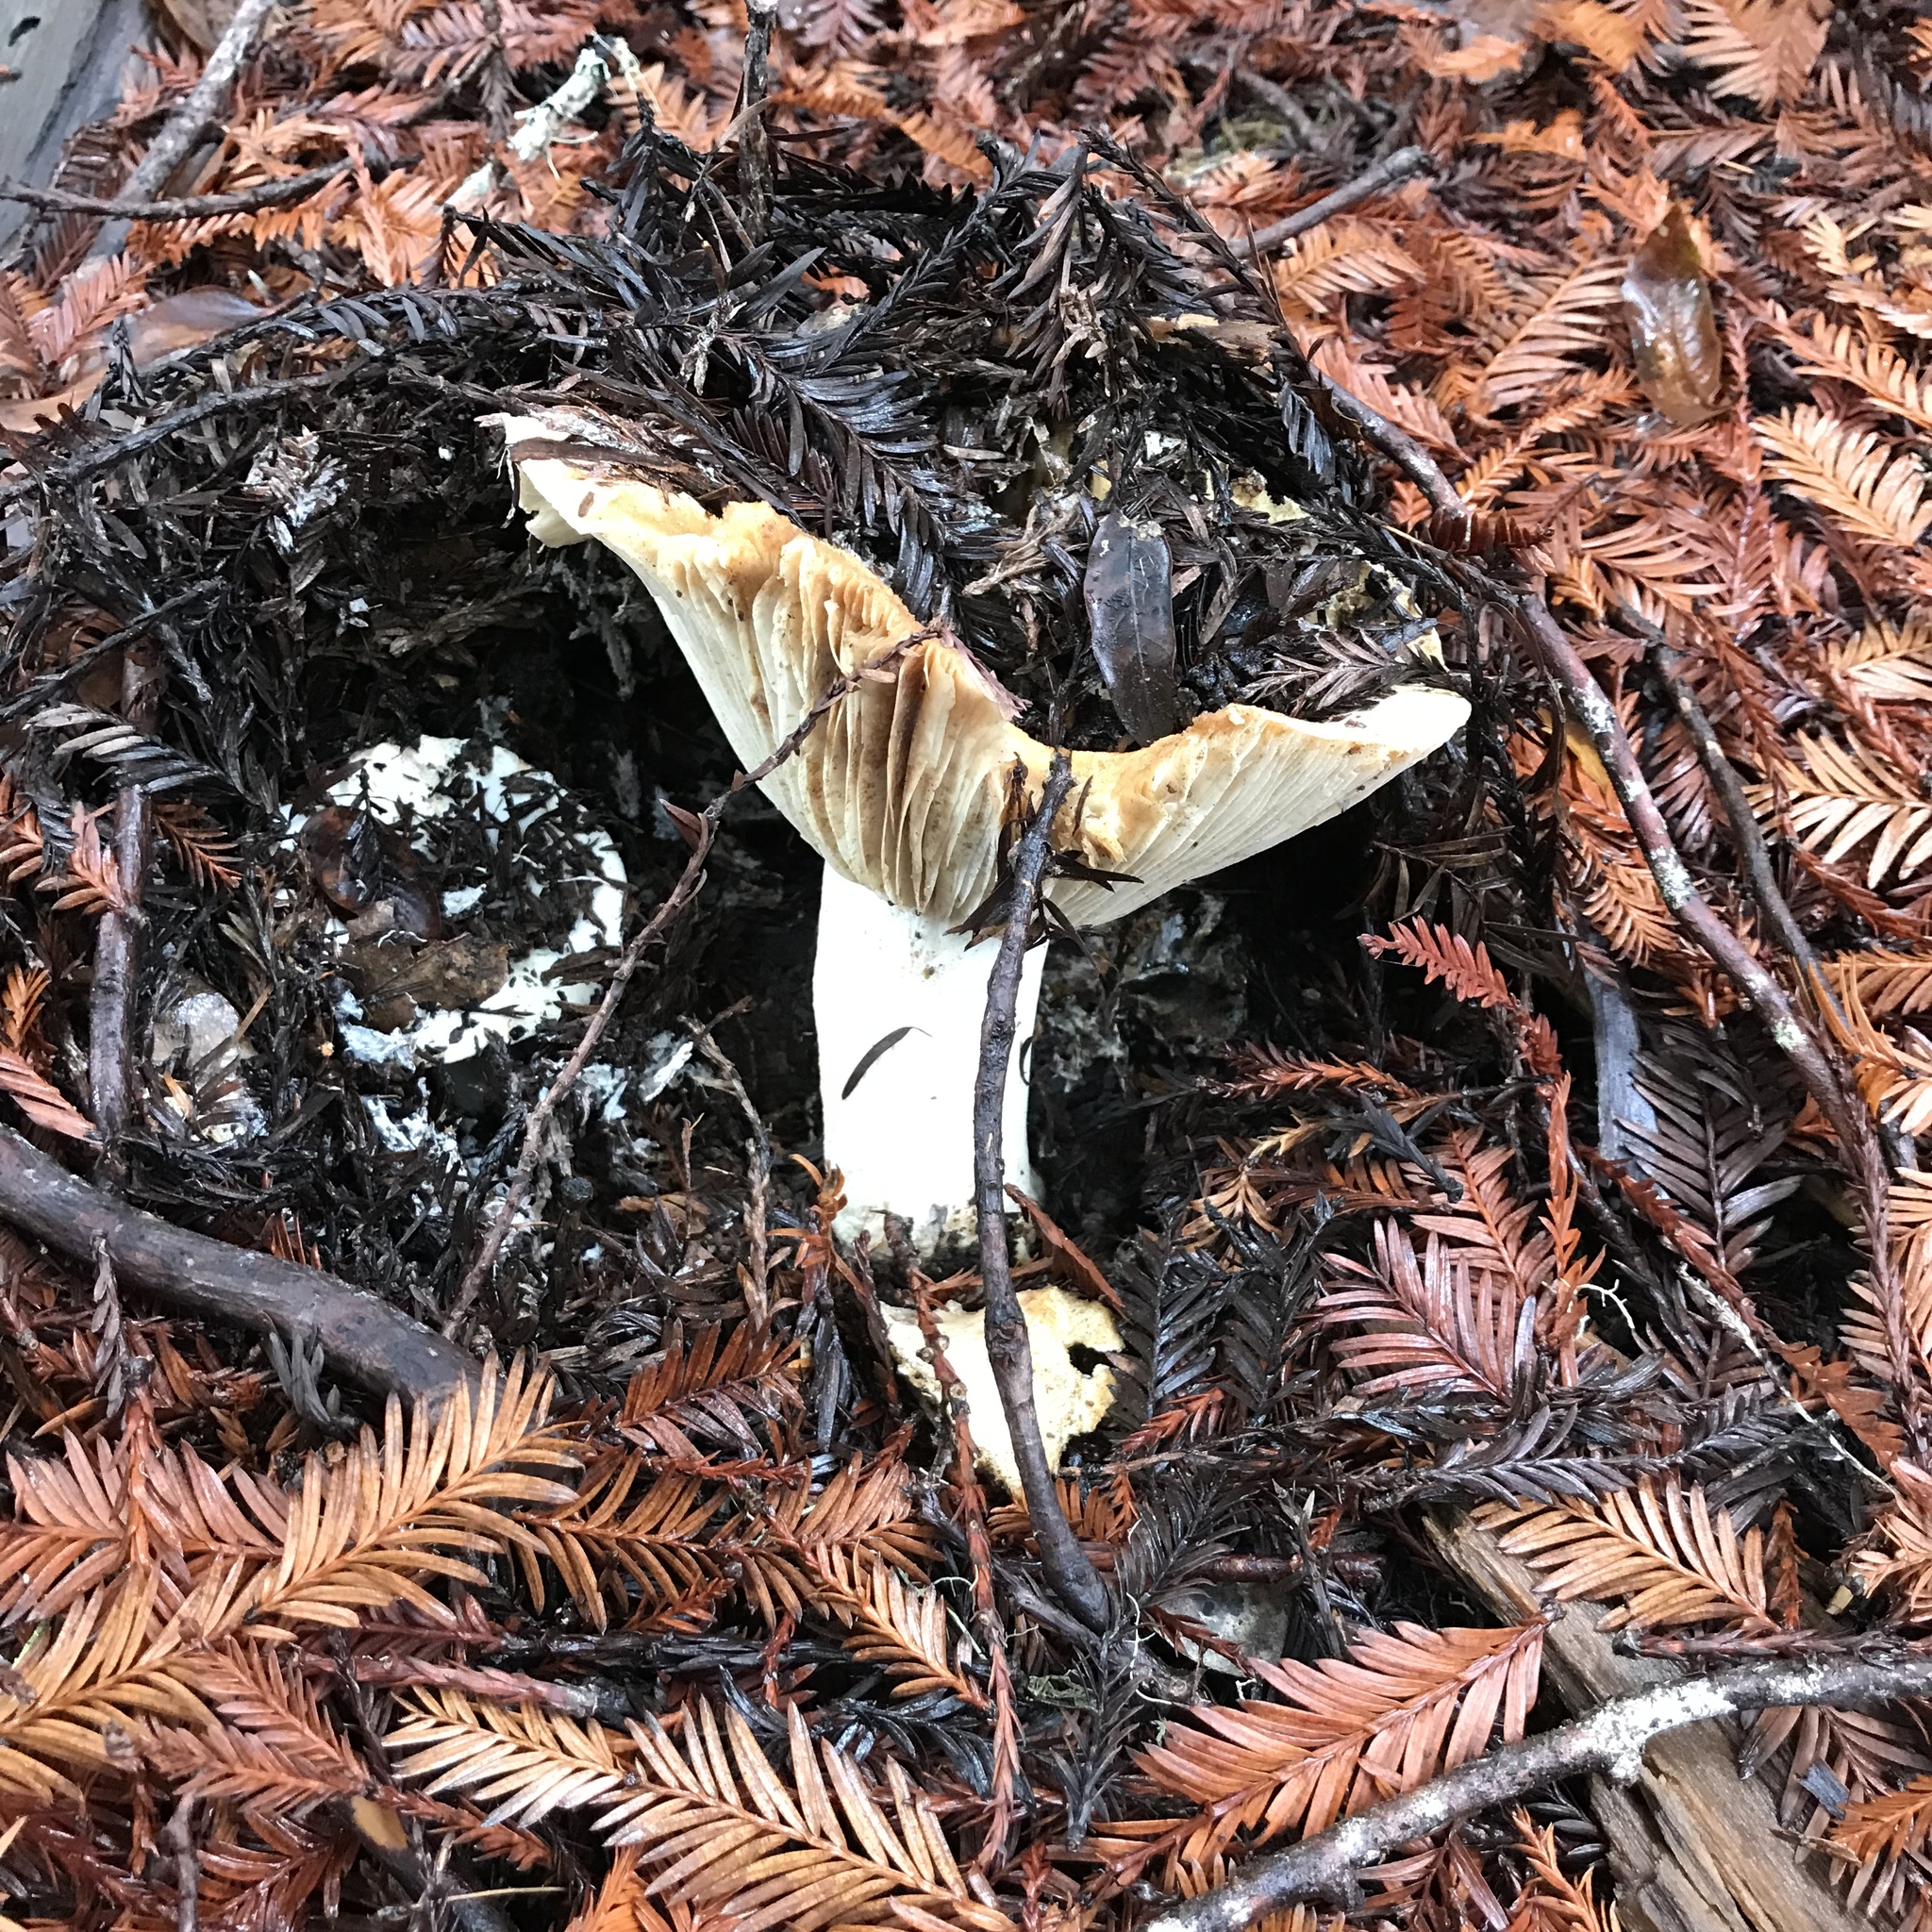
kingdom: Fungi
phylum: Basidiomycota
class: Agaricomycetes
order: Russulales
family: Russulaceae
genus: Russula
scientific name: Russula brevipes
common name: Short-stemmed russula
